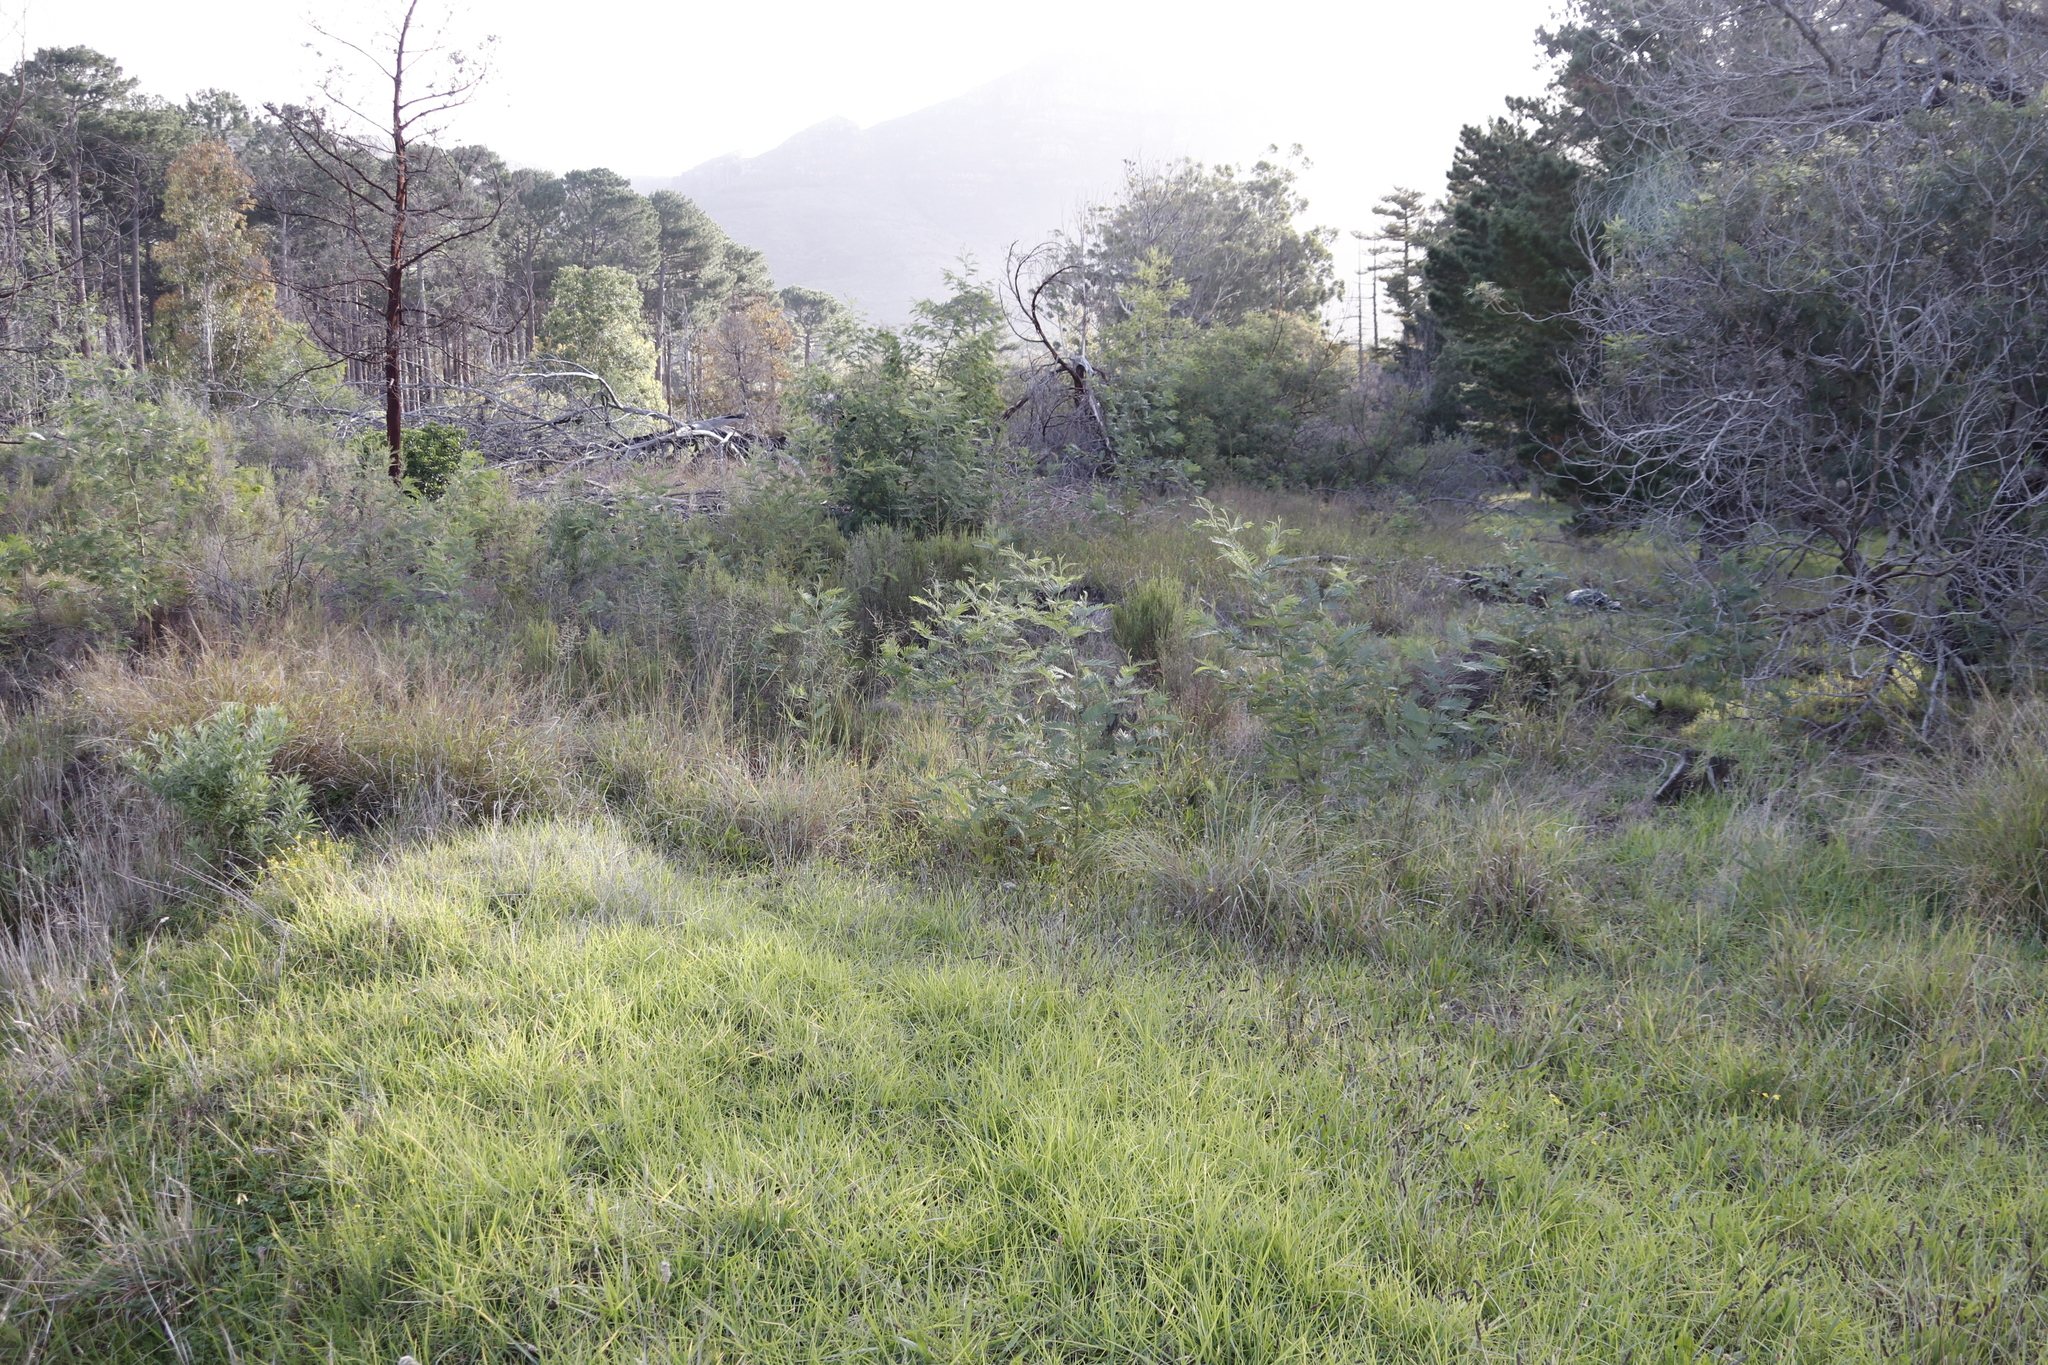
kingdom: Plantae
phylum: Tracheophyta
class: Magnoliopsida
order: Fabales
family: Fabaceae
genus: Acacia
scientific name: Acacia mearnsii
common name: Black wattle
